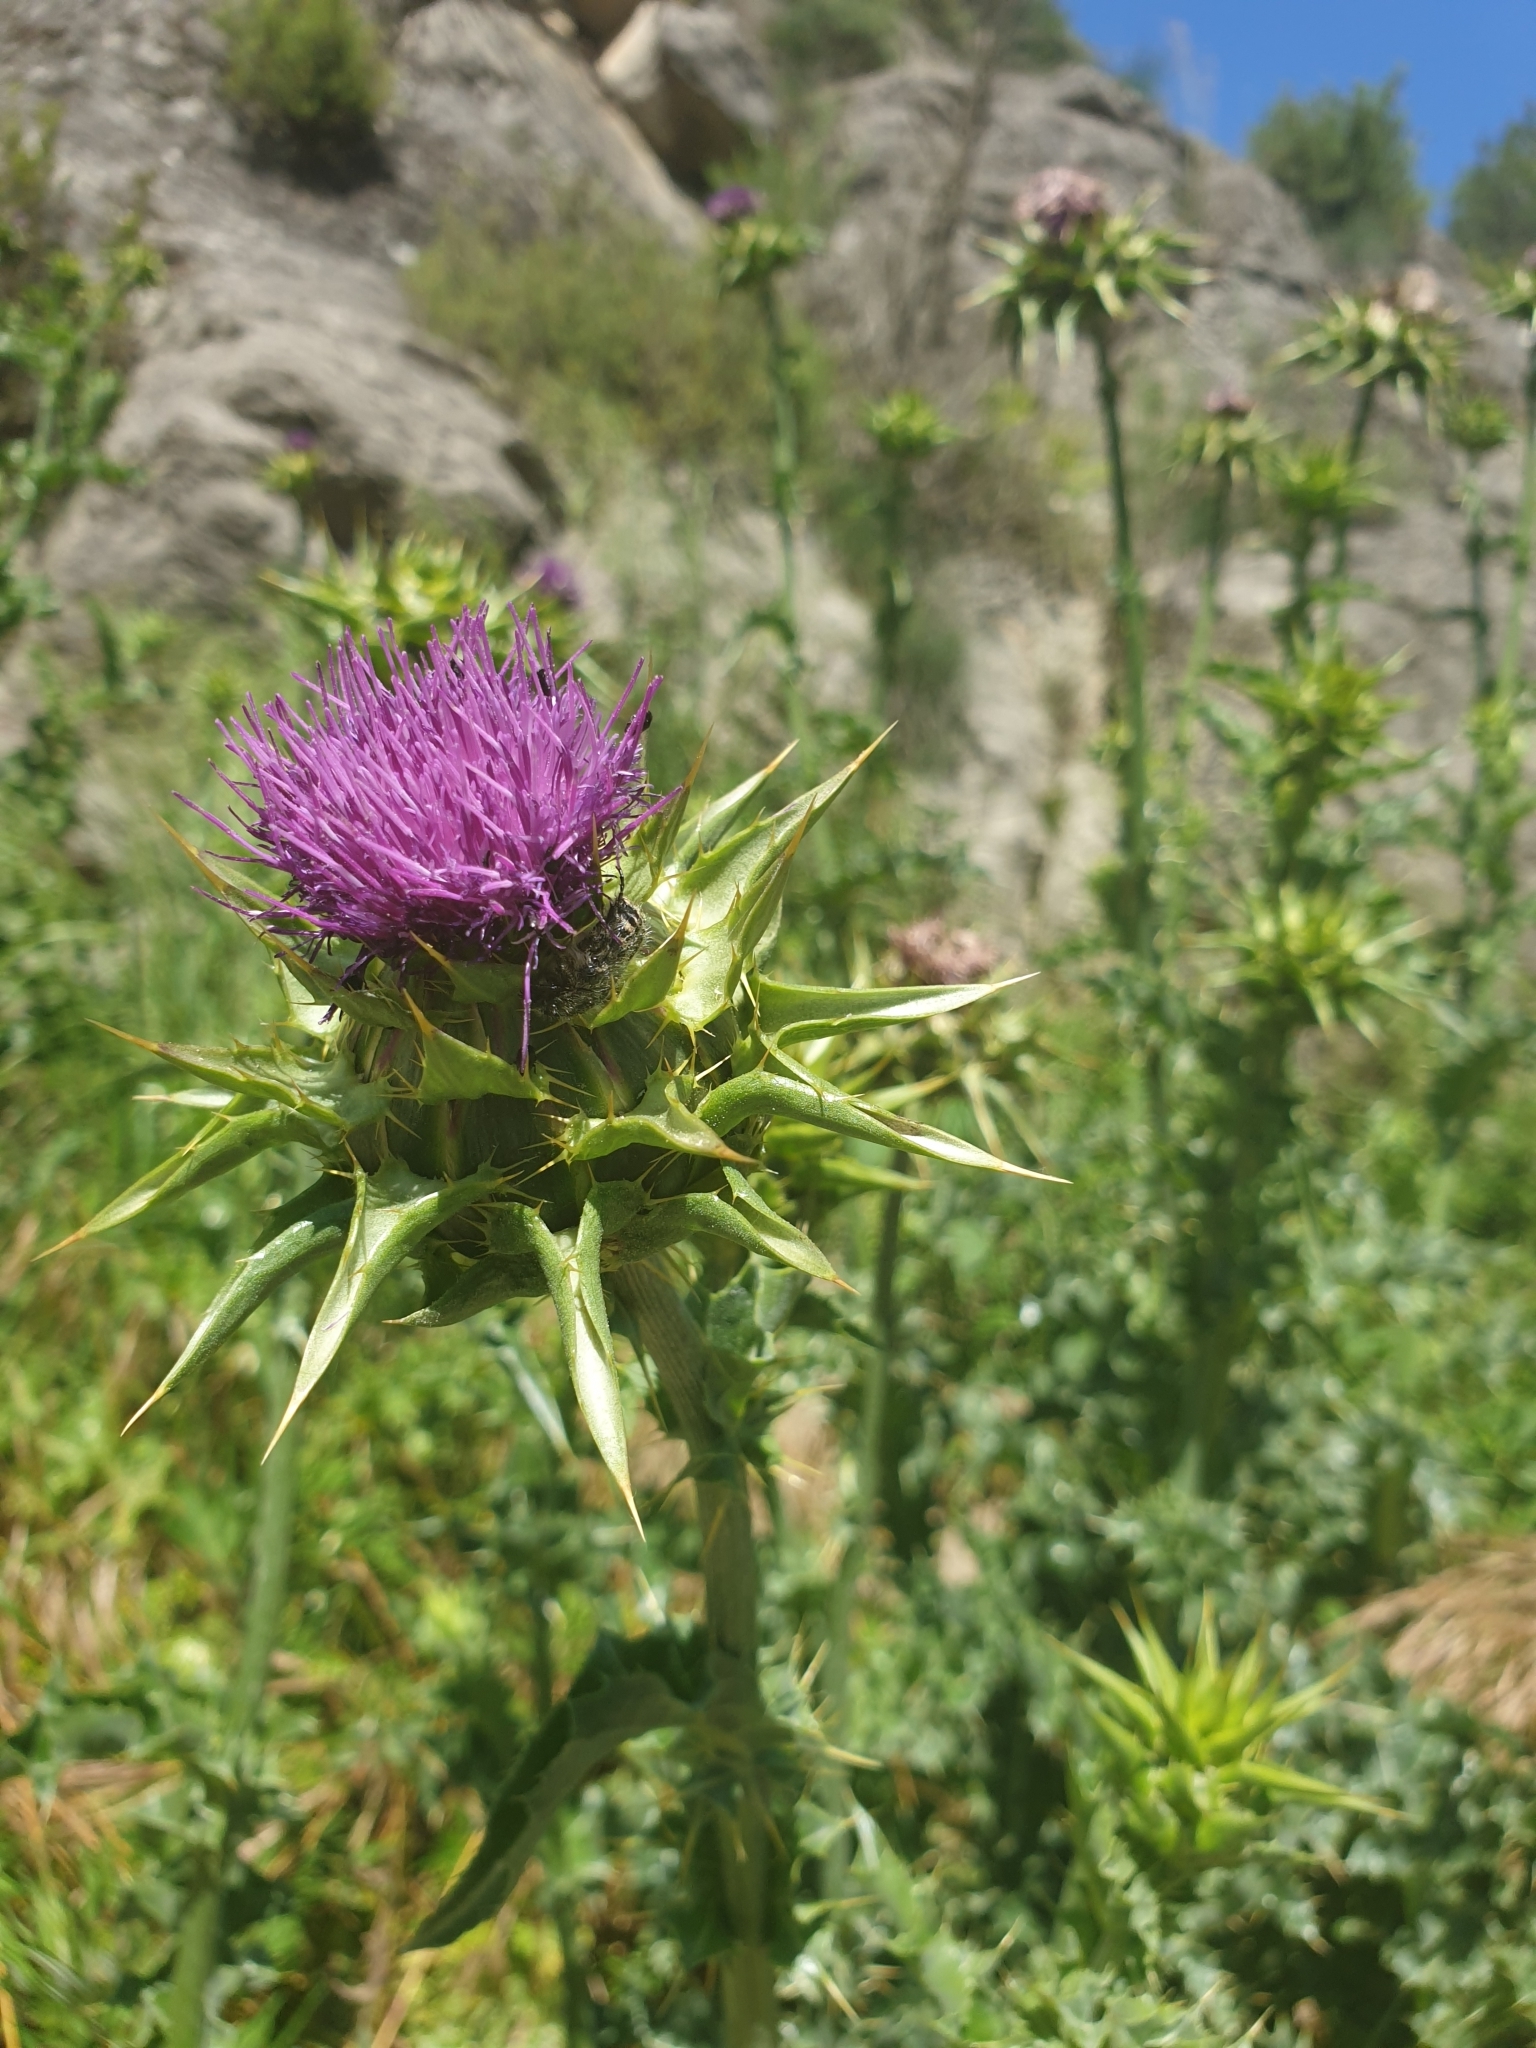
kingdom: Plantae
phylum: Tracheophyta
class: Magnoliopsida
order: Asterales
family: Asteraceae
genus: Silybum
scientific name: Silybum marianum
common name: Milk thistle
